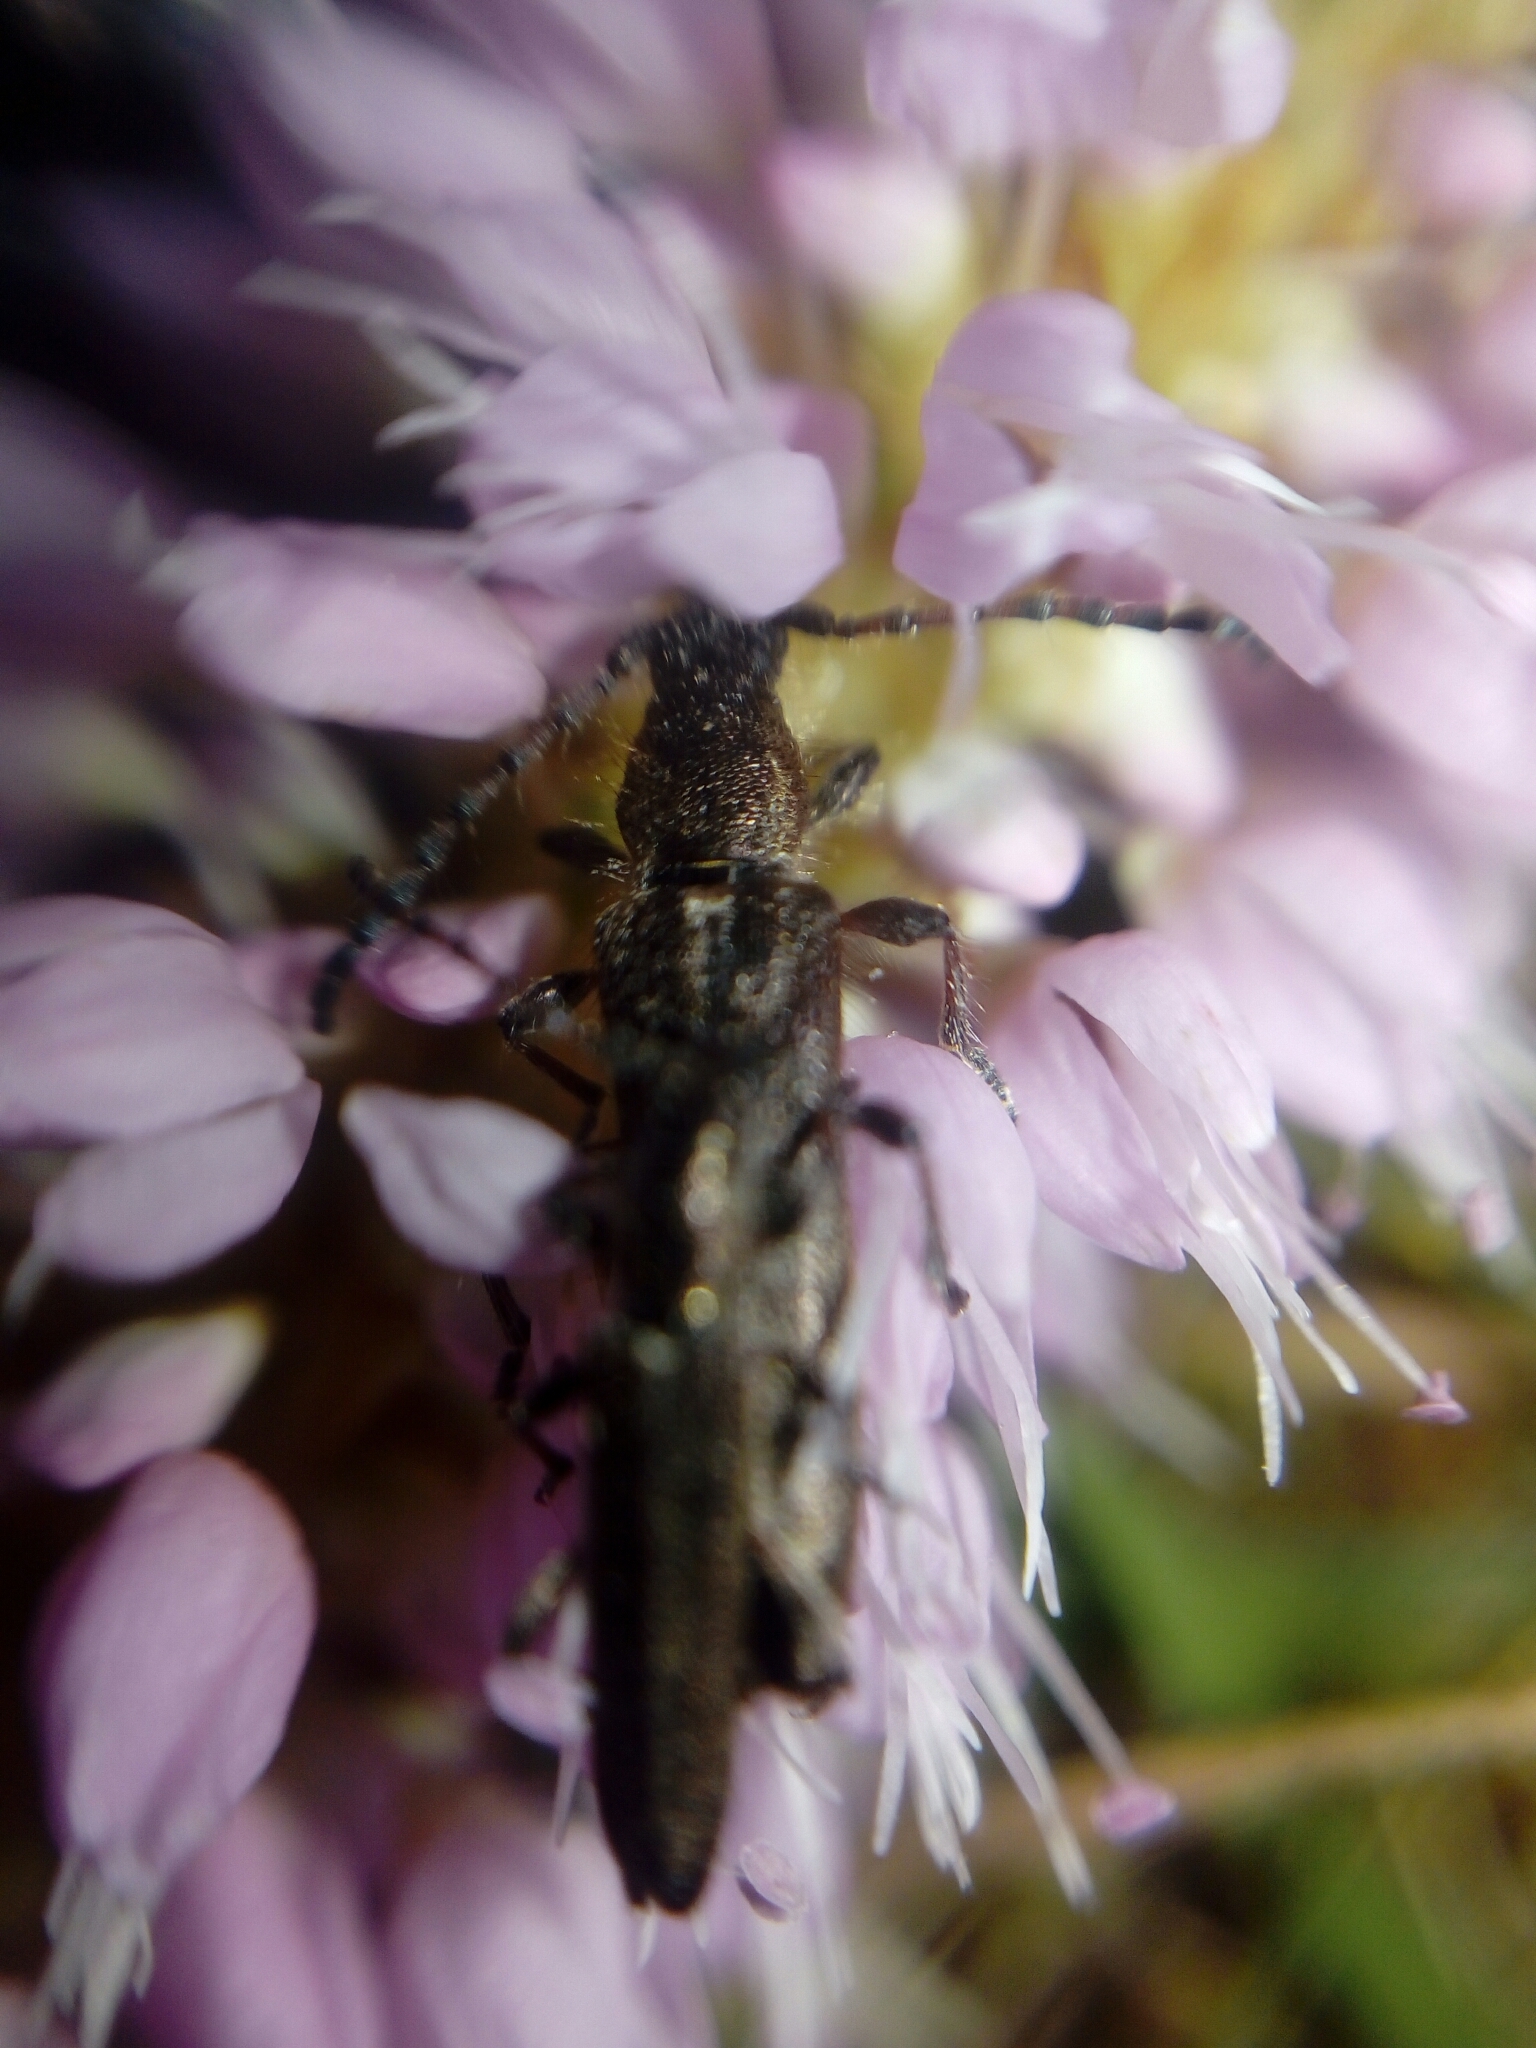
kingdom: Animalia
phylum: Arthropoda
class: Insecta
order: Coleoptera
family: Cerambycidae
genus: Deilus
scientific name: Deilus fugax
